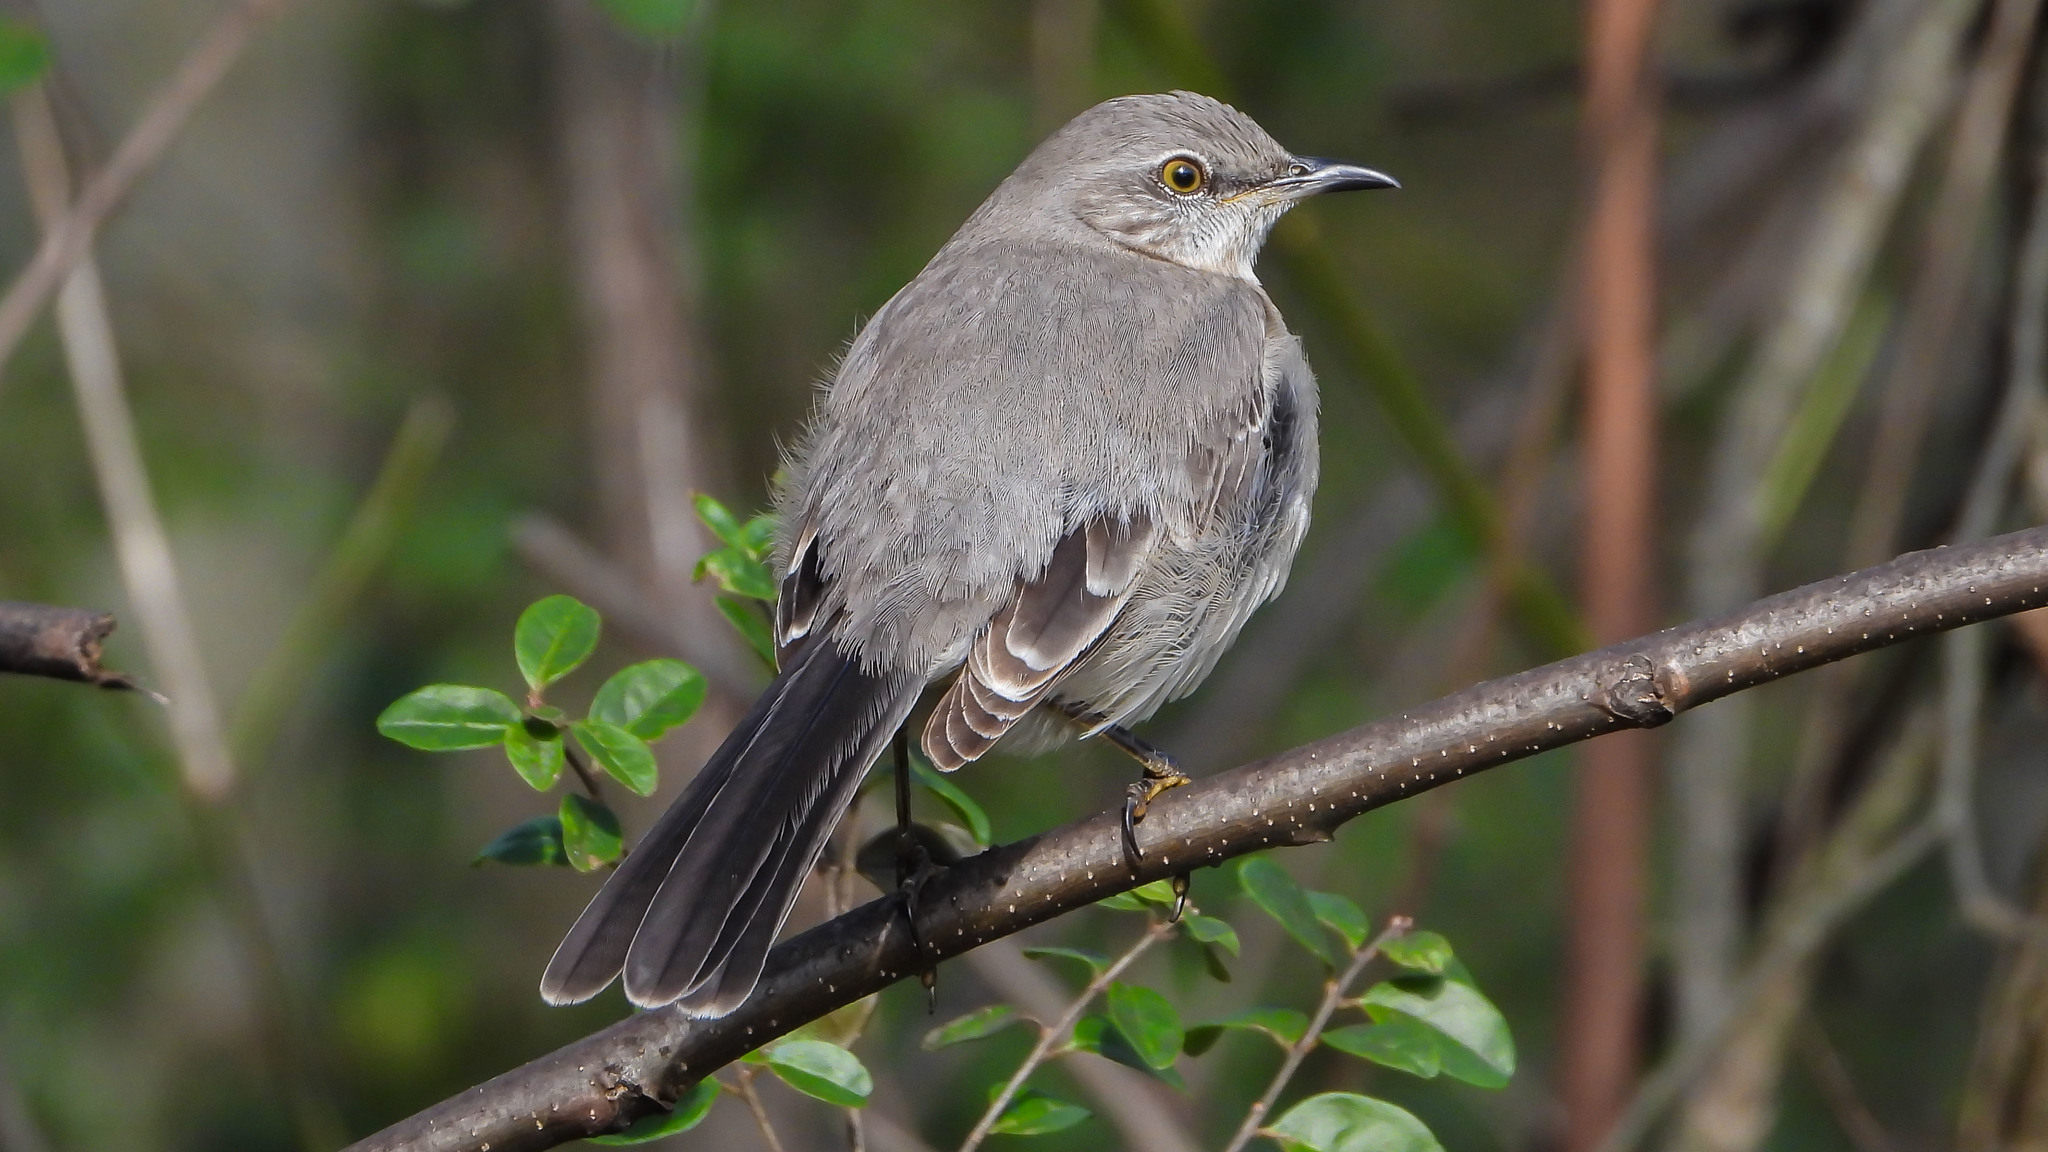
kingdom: Animalia
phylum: Chordata
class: Aves
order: Passeriformes
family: Mimidae
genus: Mimus
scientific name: Mimus polyglottos
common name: Northern mockingbird
